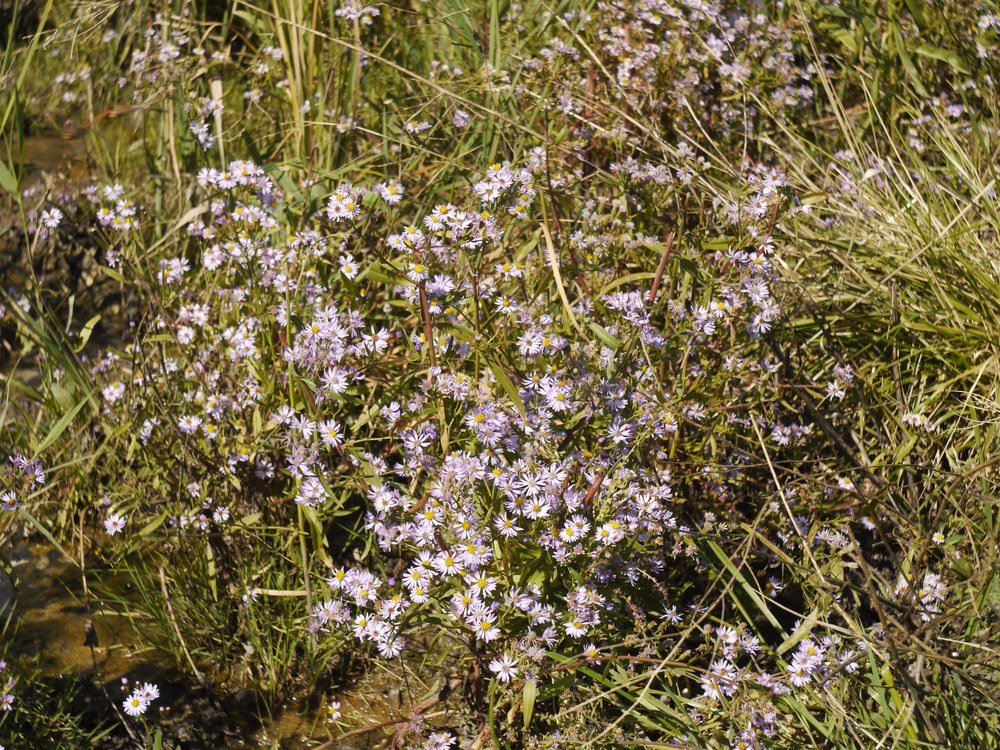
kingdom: Plantae
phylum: Tracheophyta
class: Magnoliopsida
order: Asterales
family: Asteraceae
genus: Tripolium
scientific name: Tripolium pannonicum
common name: Sea aster
